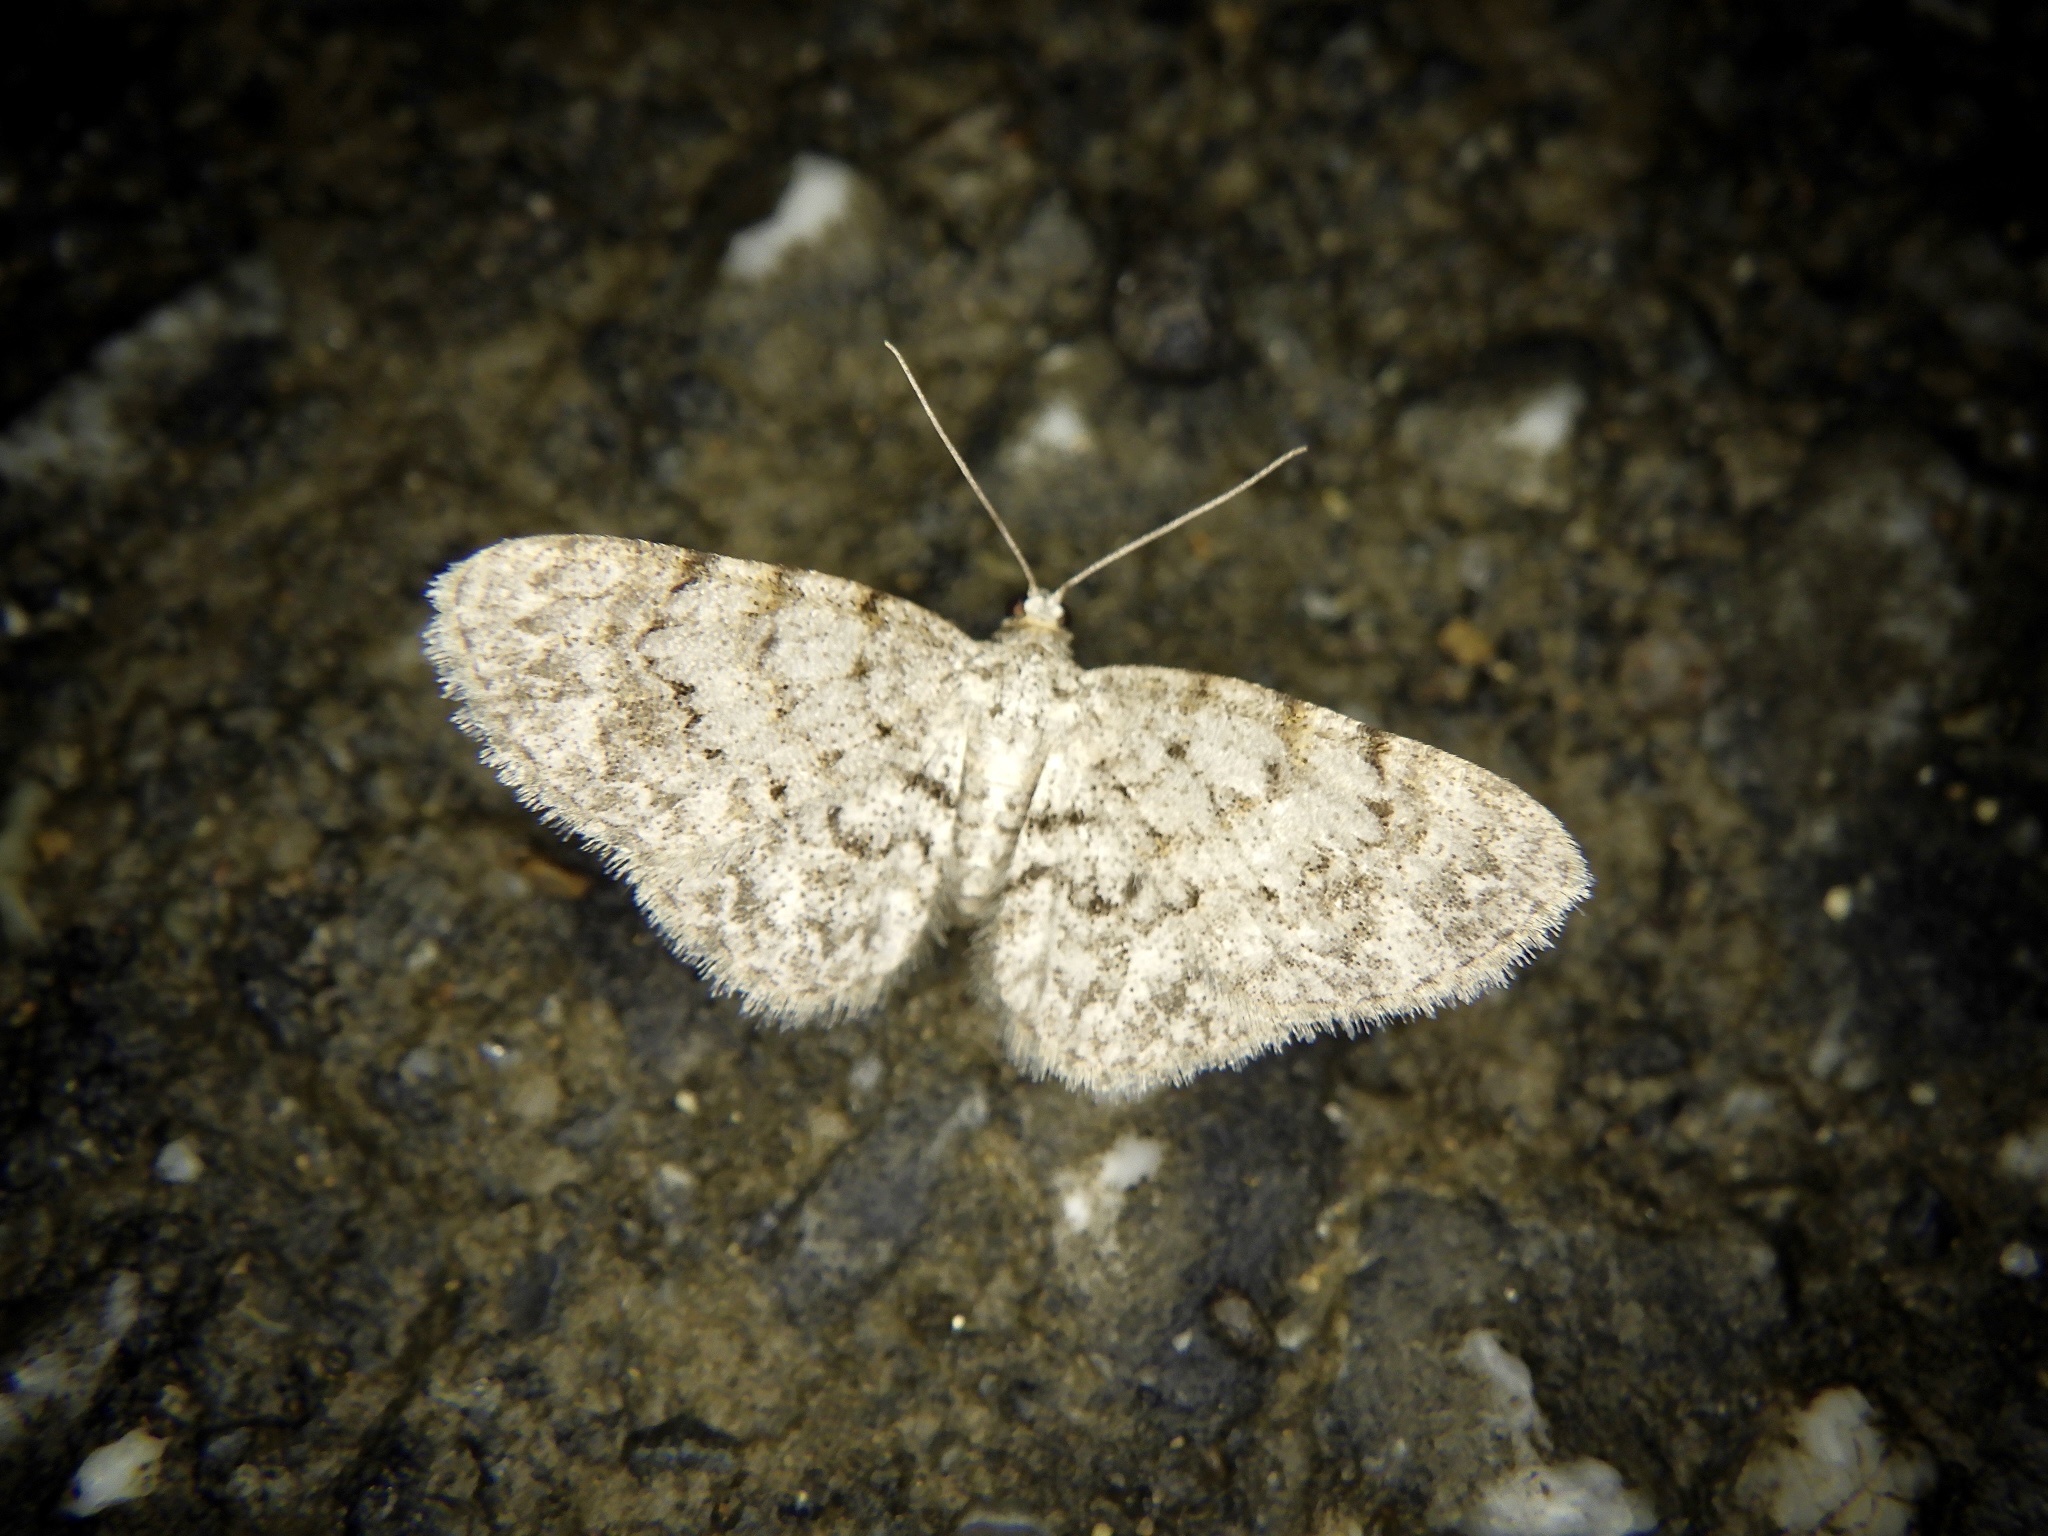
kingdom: Animalia
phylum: Arthropoda
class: Insecta
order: Lepidoptera
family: Geometridae
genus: Myrioblephara
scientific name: Myrioblephara
